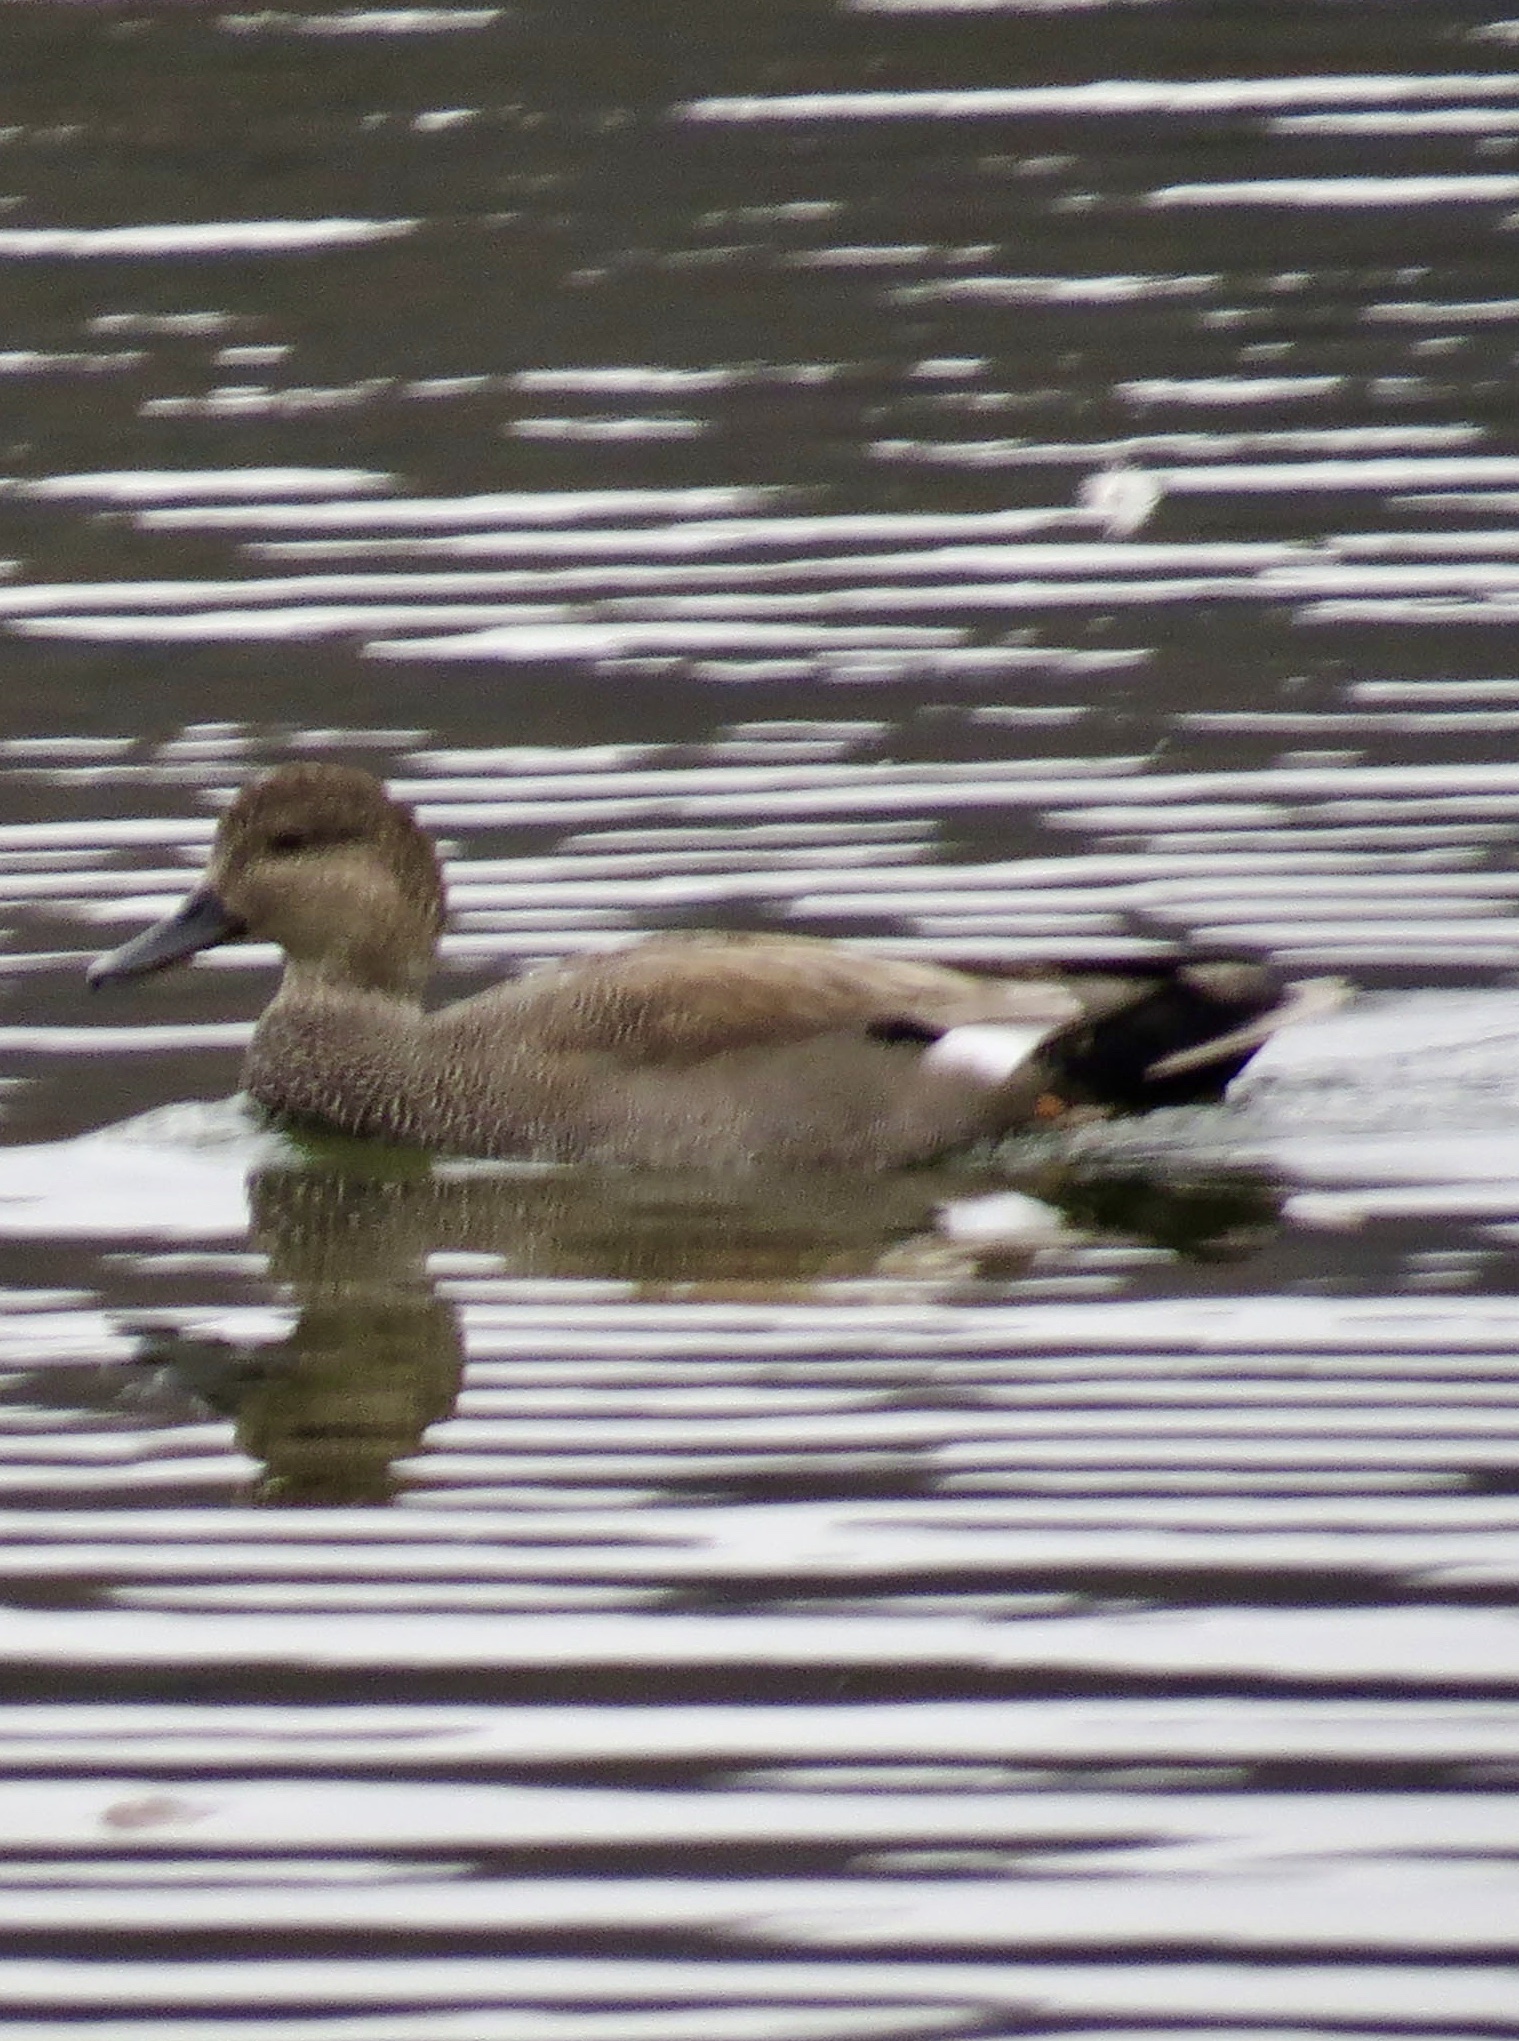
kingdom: Animalia
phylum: Chordata
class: Aves
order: Anseriformes
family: Anatidae
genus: Mareca
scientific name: Mareca strepera
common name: Gadwall
